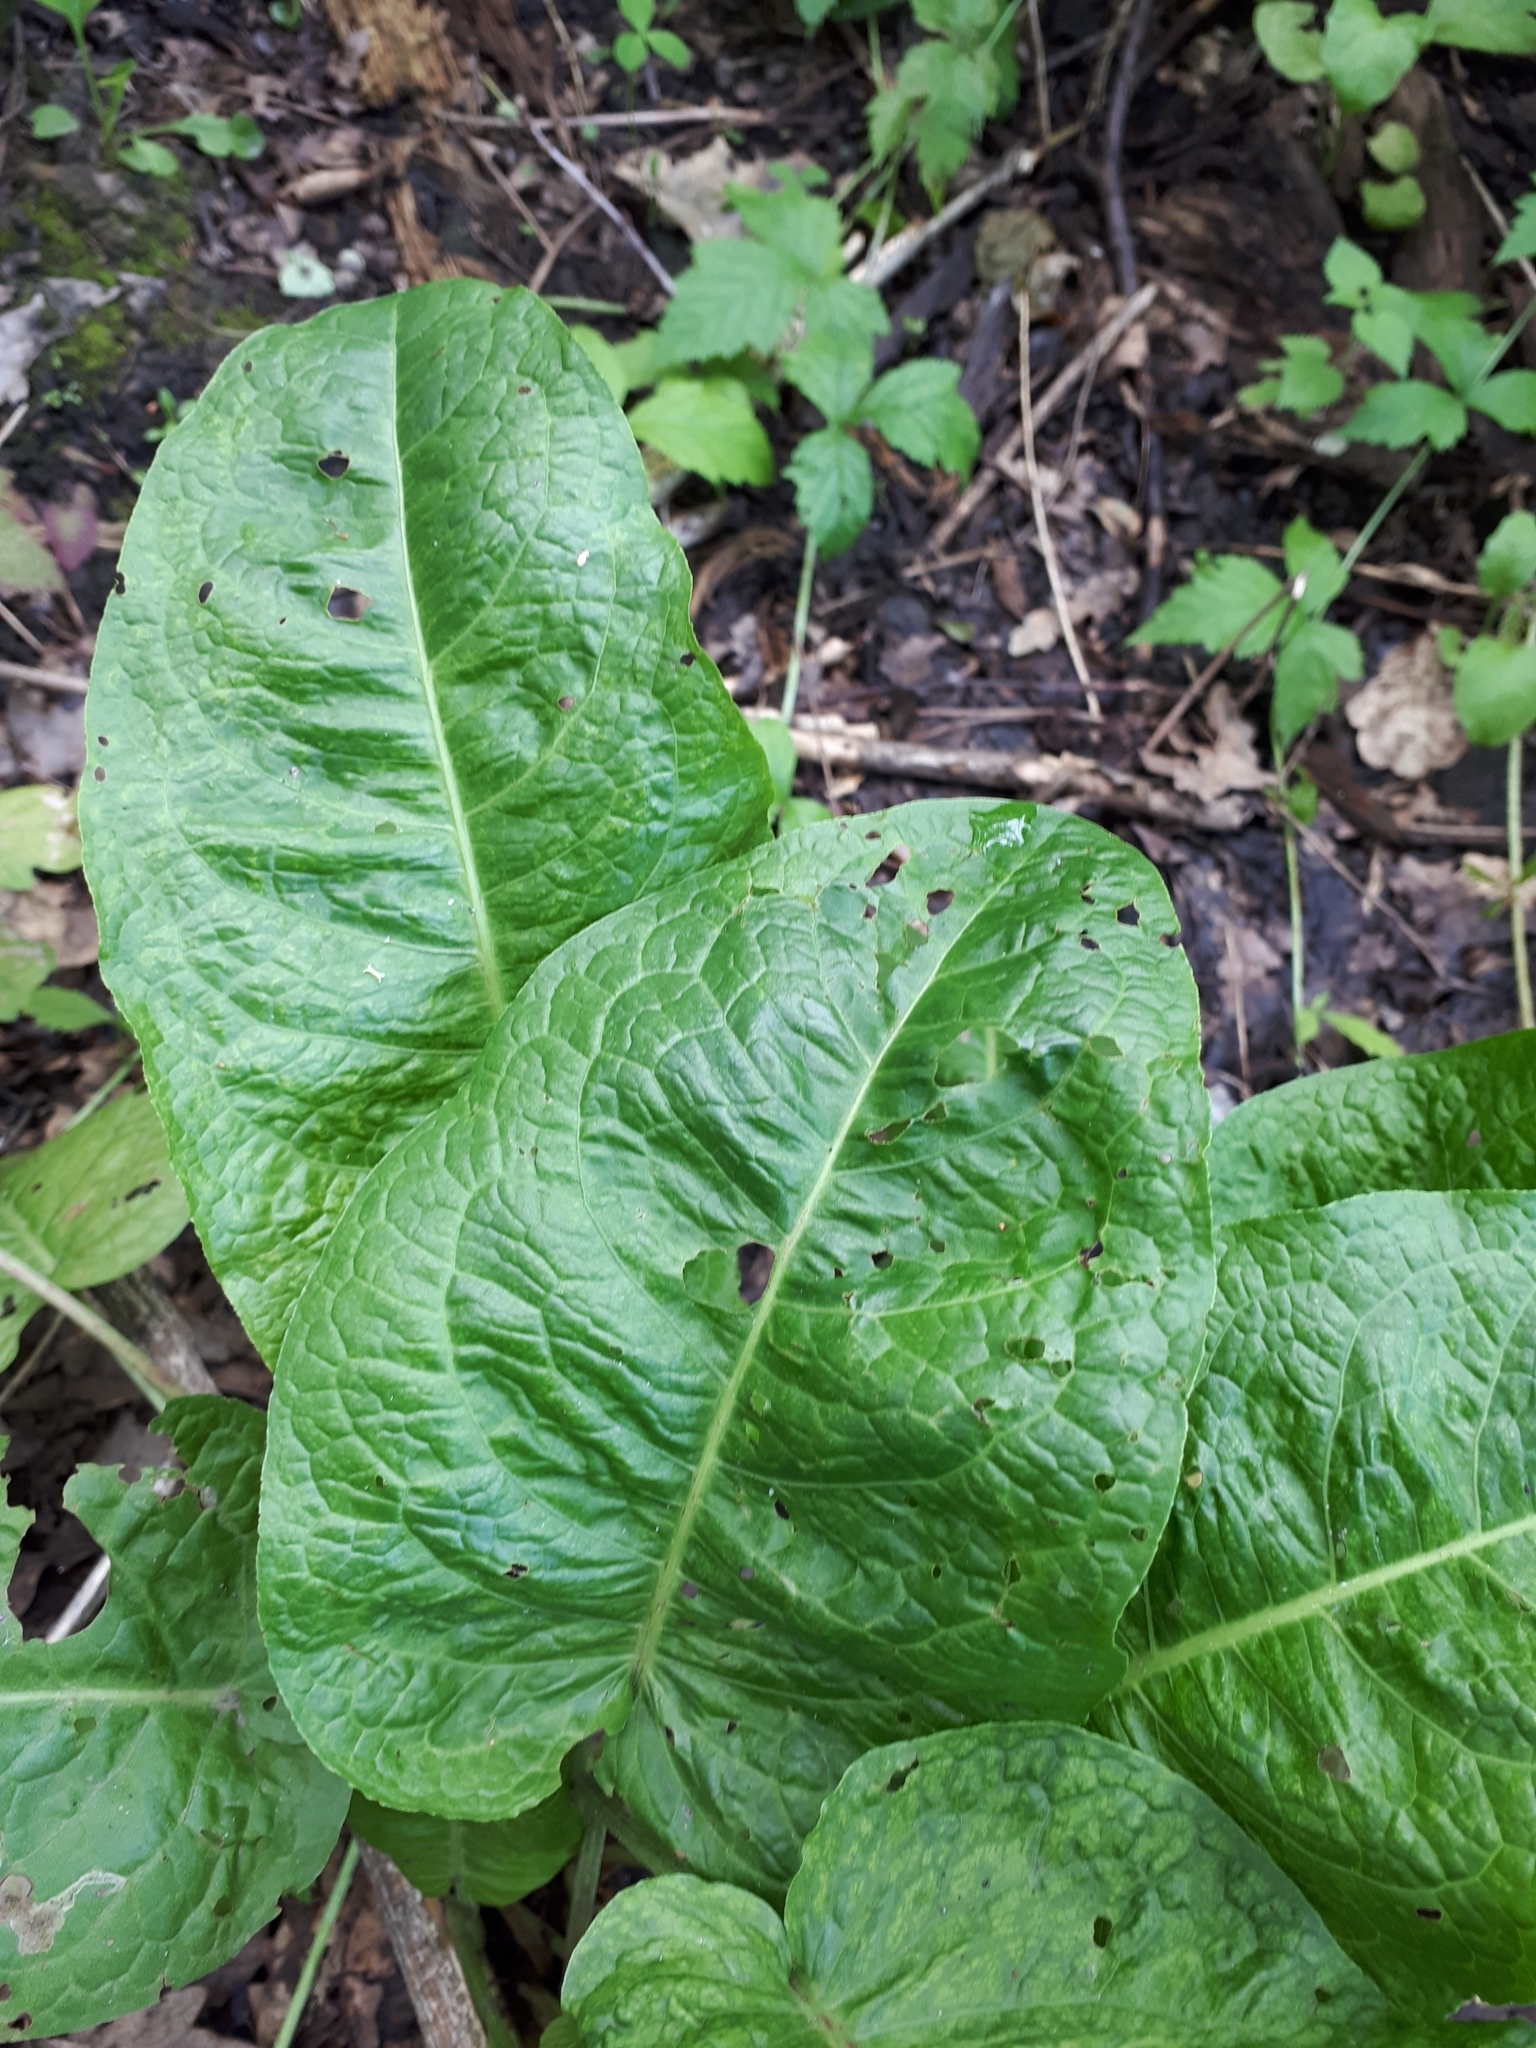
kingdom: Plantae
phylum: Tracheophyta
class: Magnoliopsida
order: Caryophyllales
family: Polygonaceae
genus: Rumex
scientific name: Rumex obtusifolius
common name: Bitter dock
